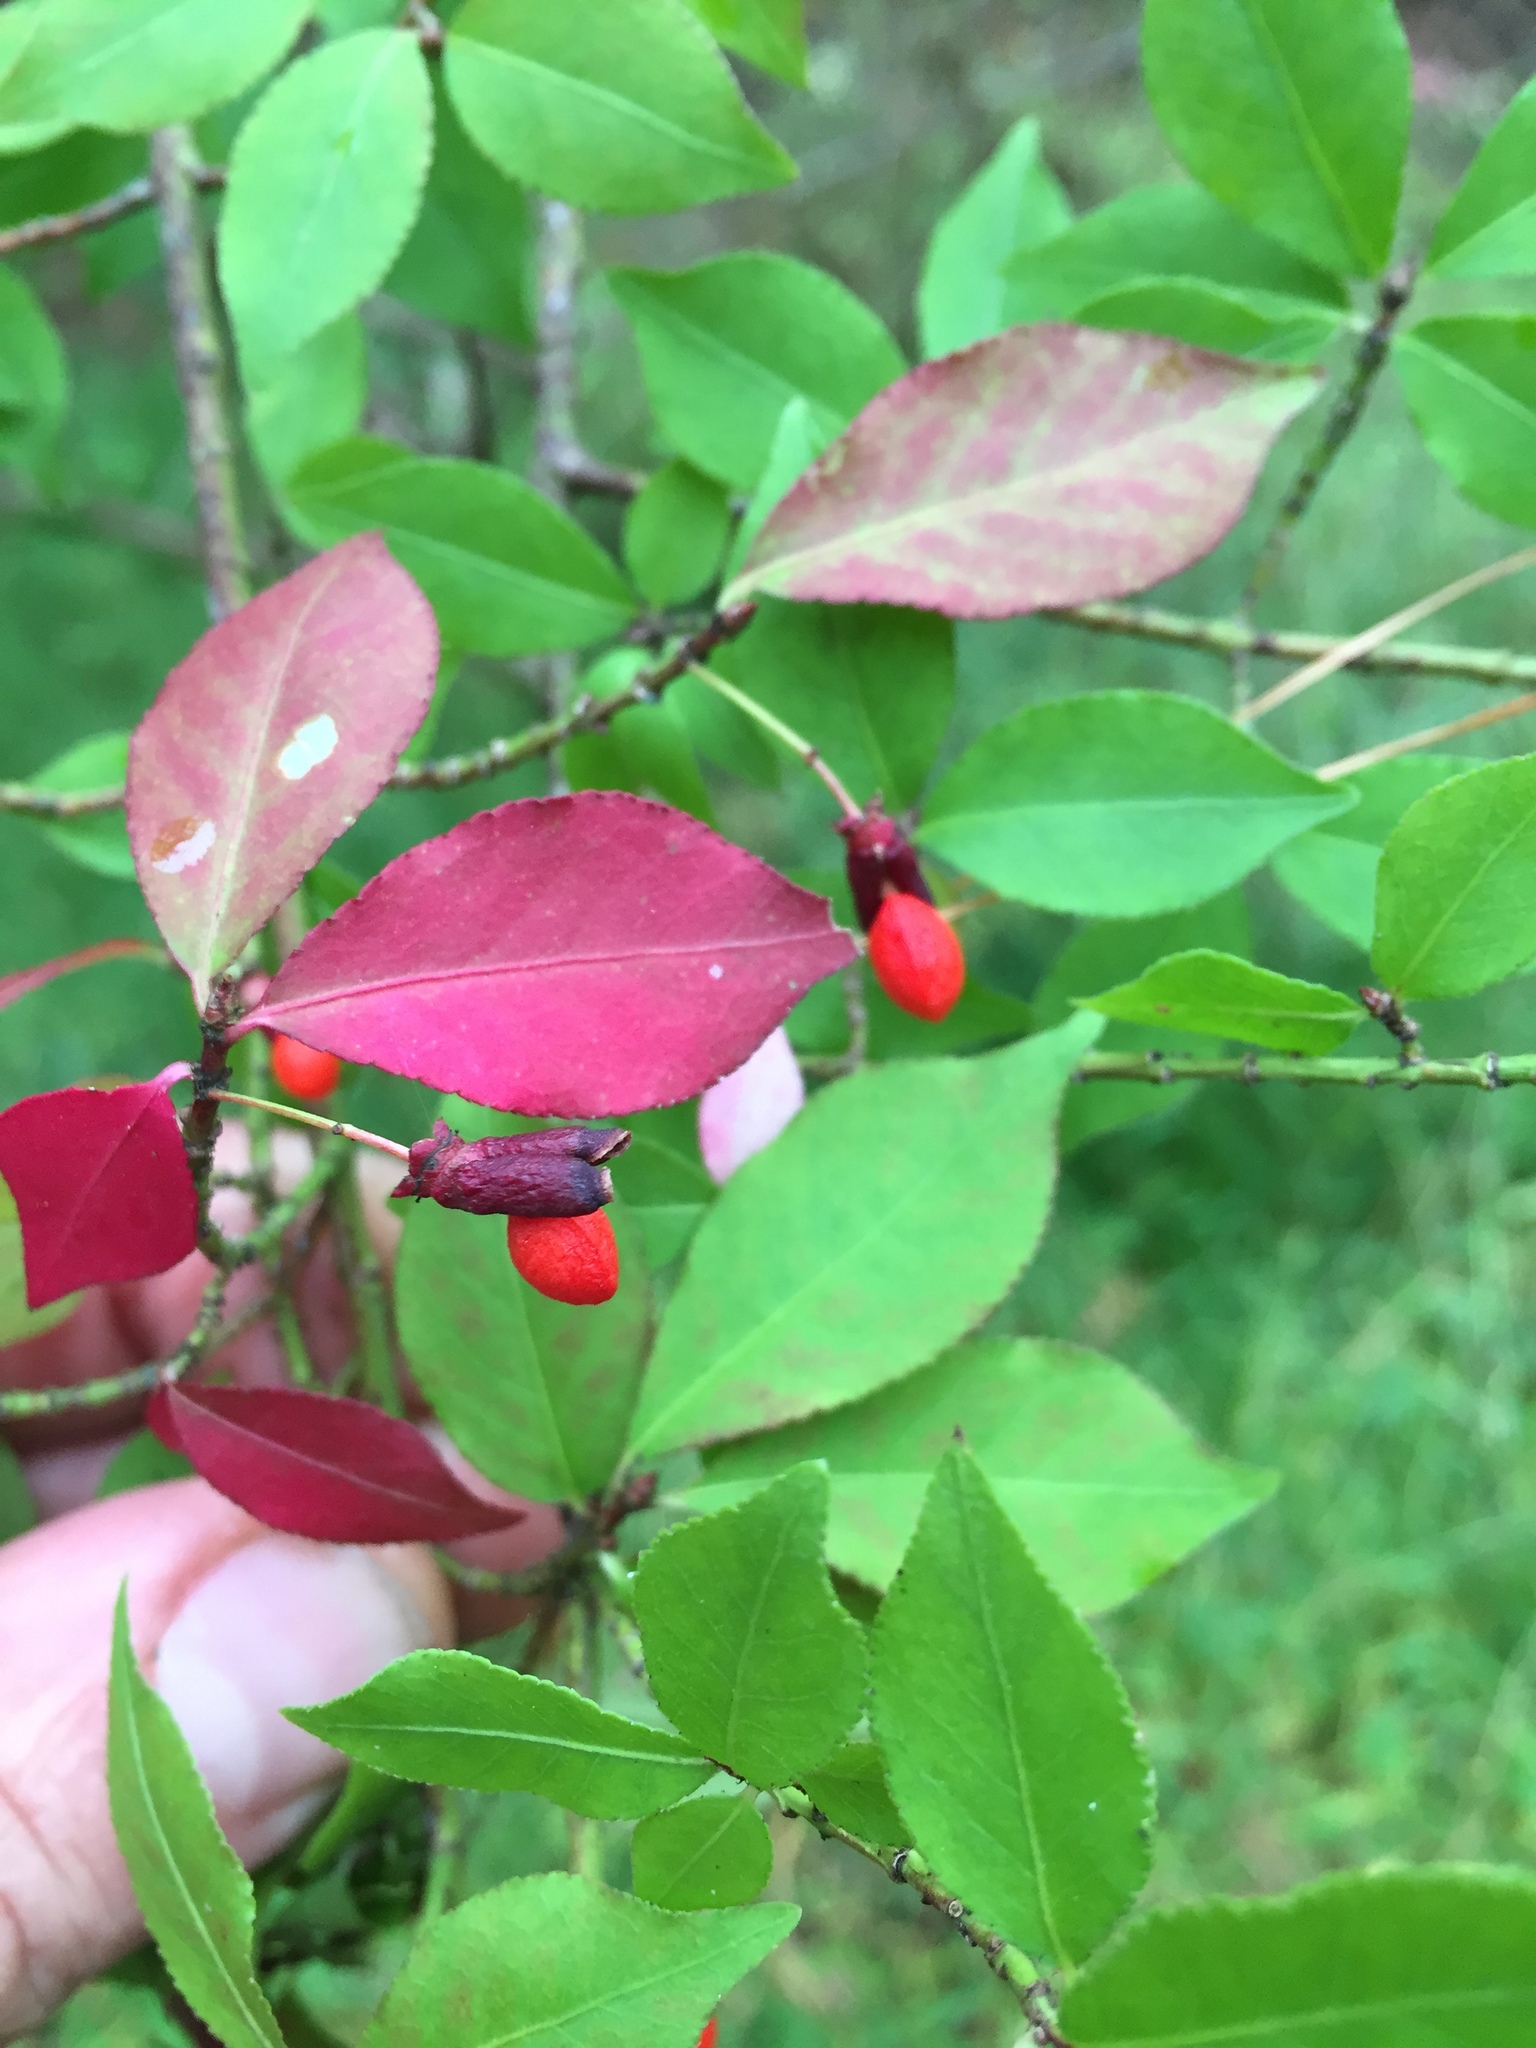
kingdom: Plantae
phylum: Tracheophyta
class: Magnoliopsida
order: Celastrales
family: Celastraceae
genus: Euonymus
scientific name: Euonymus alatus
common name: Winged euonymus
